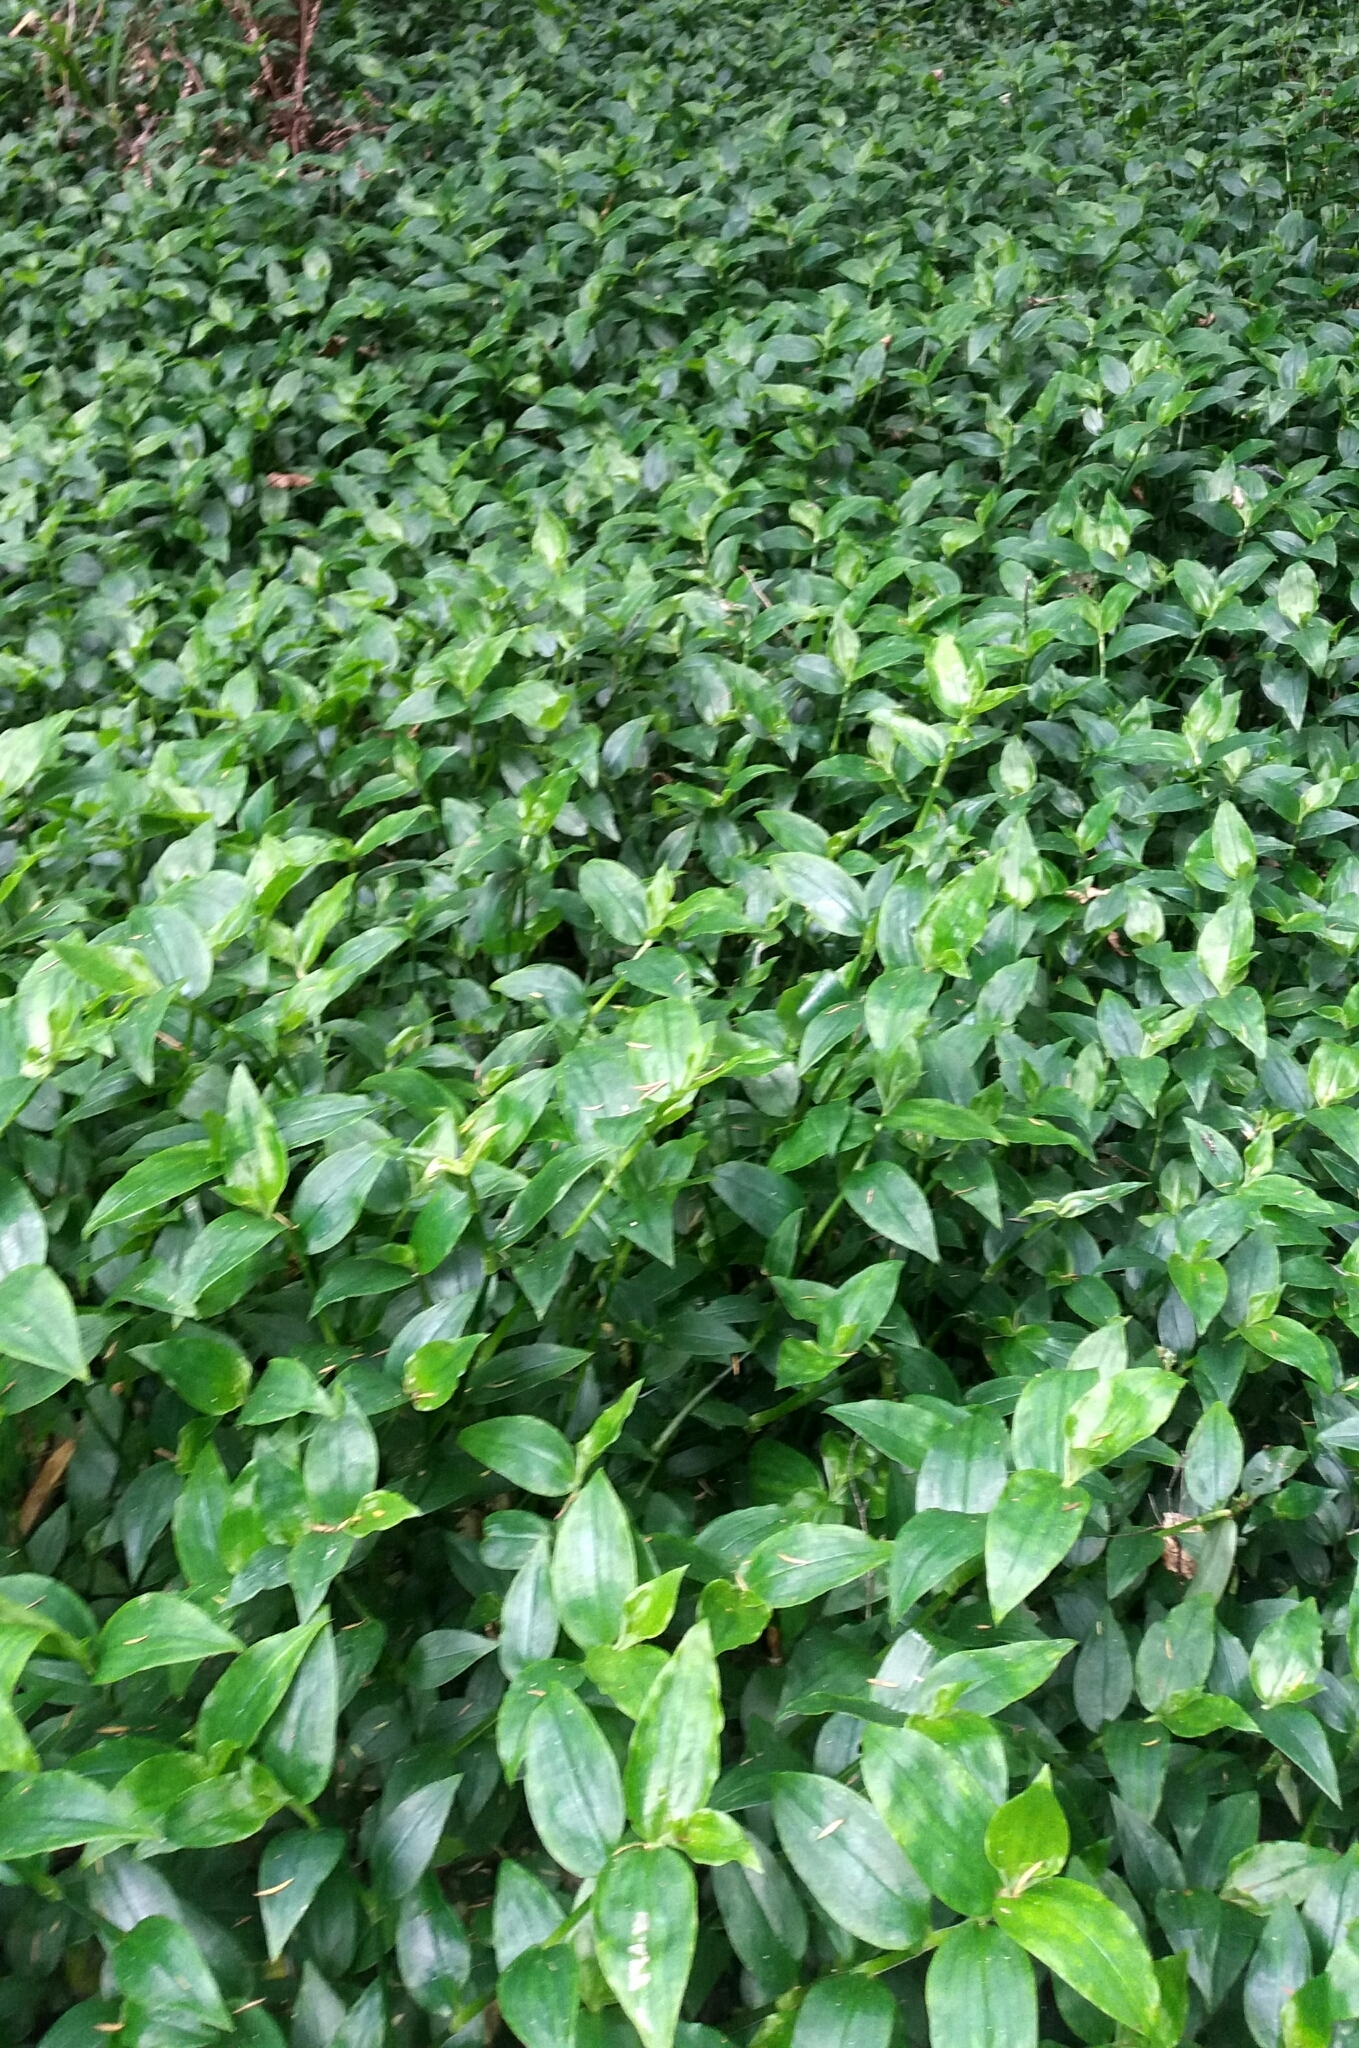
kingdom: Plantae
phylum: Tracheophyta
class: Liliopsida
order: Commelinales
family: Commelinaceae
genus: Tradescantia
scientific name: Tradescantia fluminensis
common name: Wandering-jew
